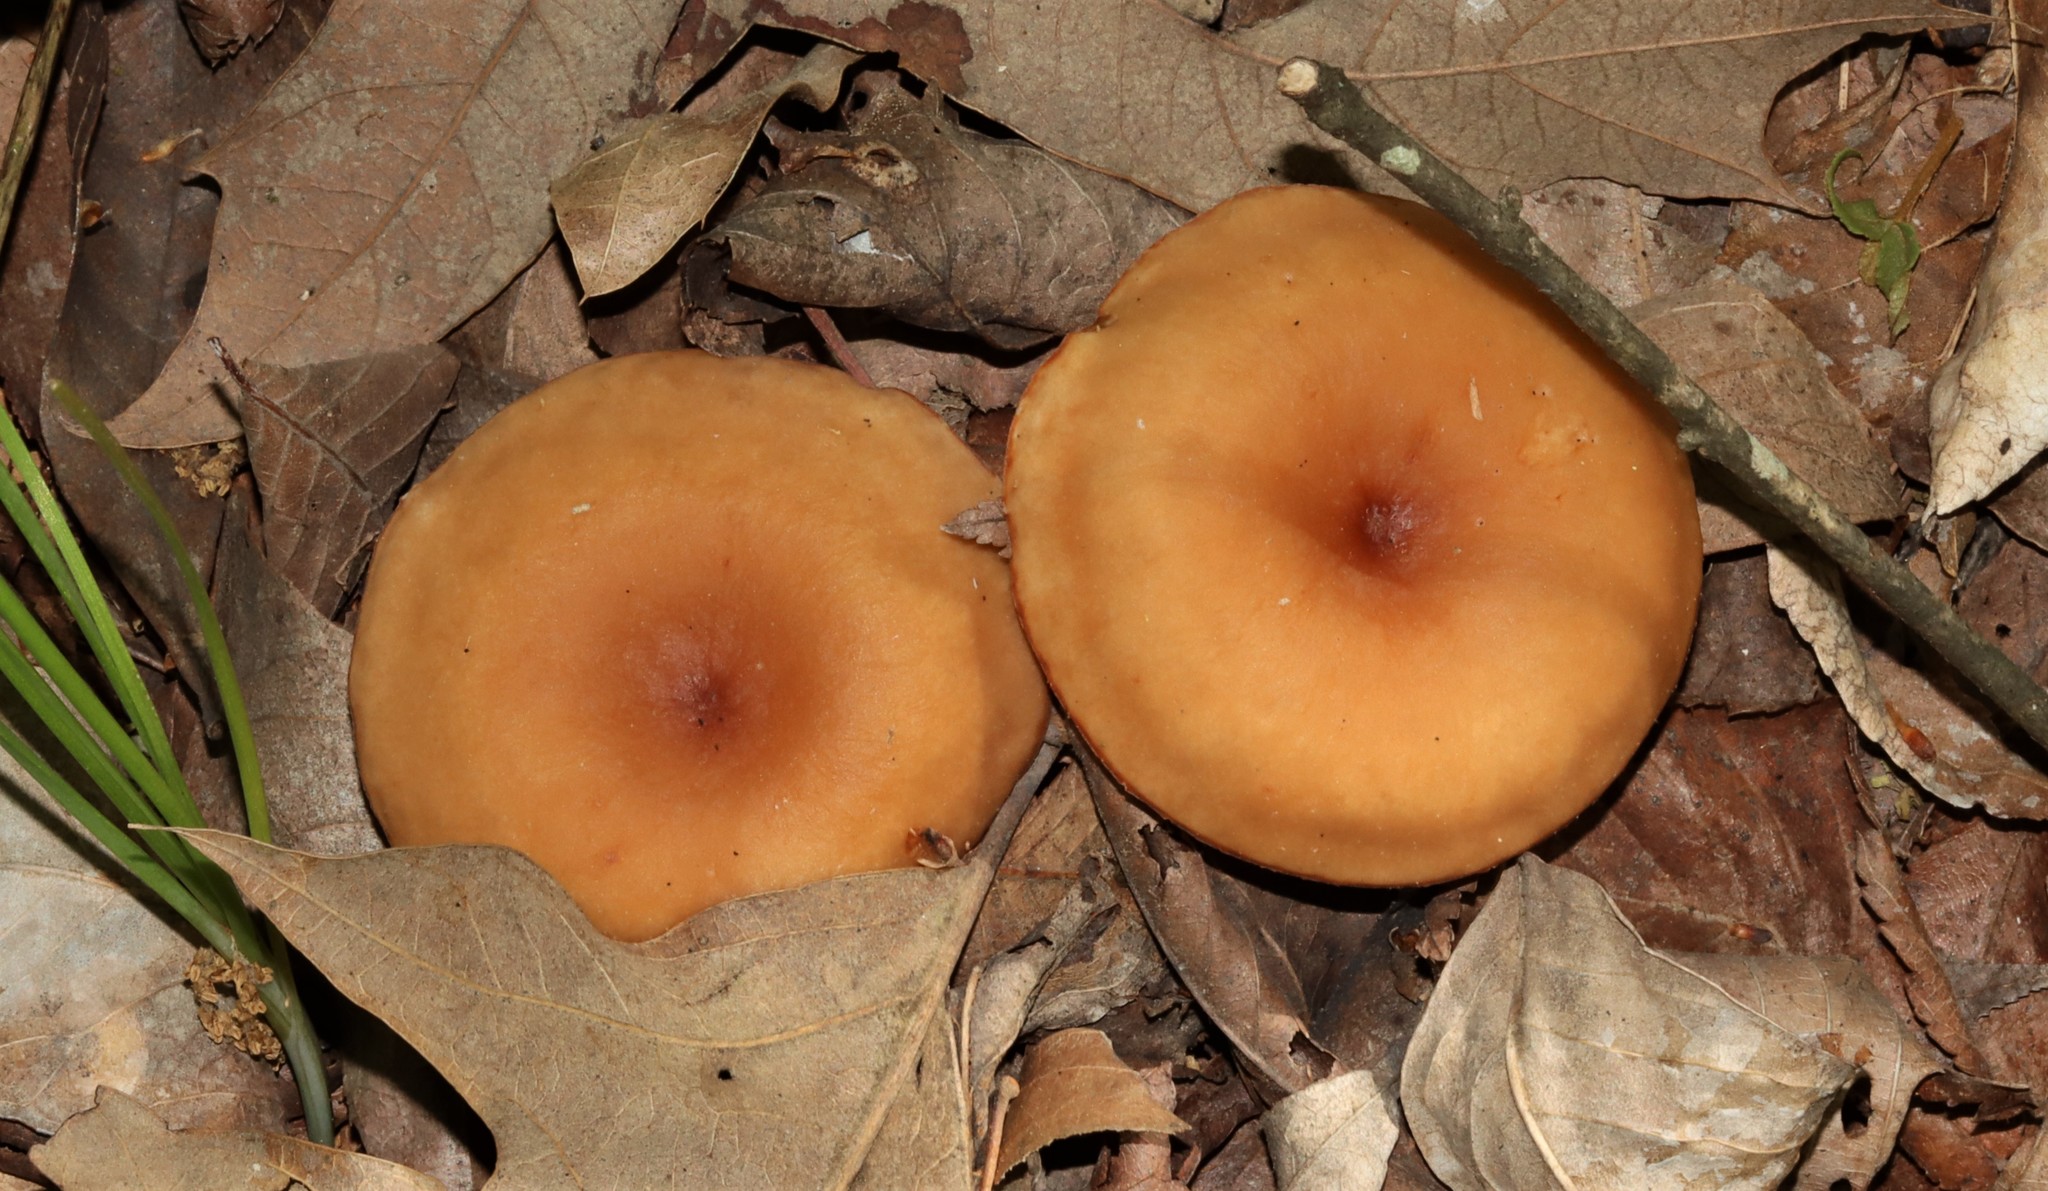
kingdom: Fungi
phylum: Basidiomycota
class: Agaricomycetes
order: Russulales
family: Russulaceae
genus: Lactifluus
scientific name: Lactifluus volemus
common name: Fishy milkcap
